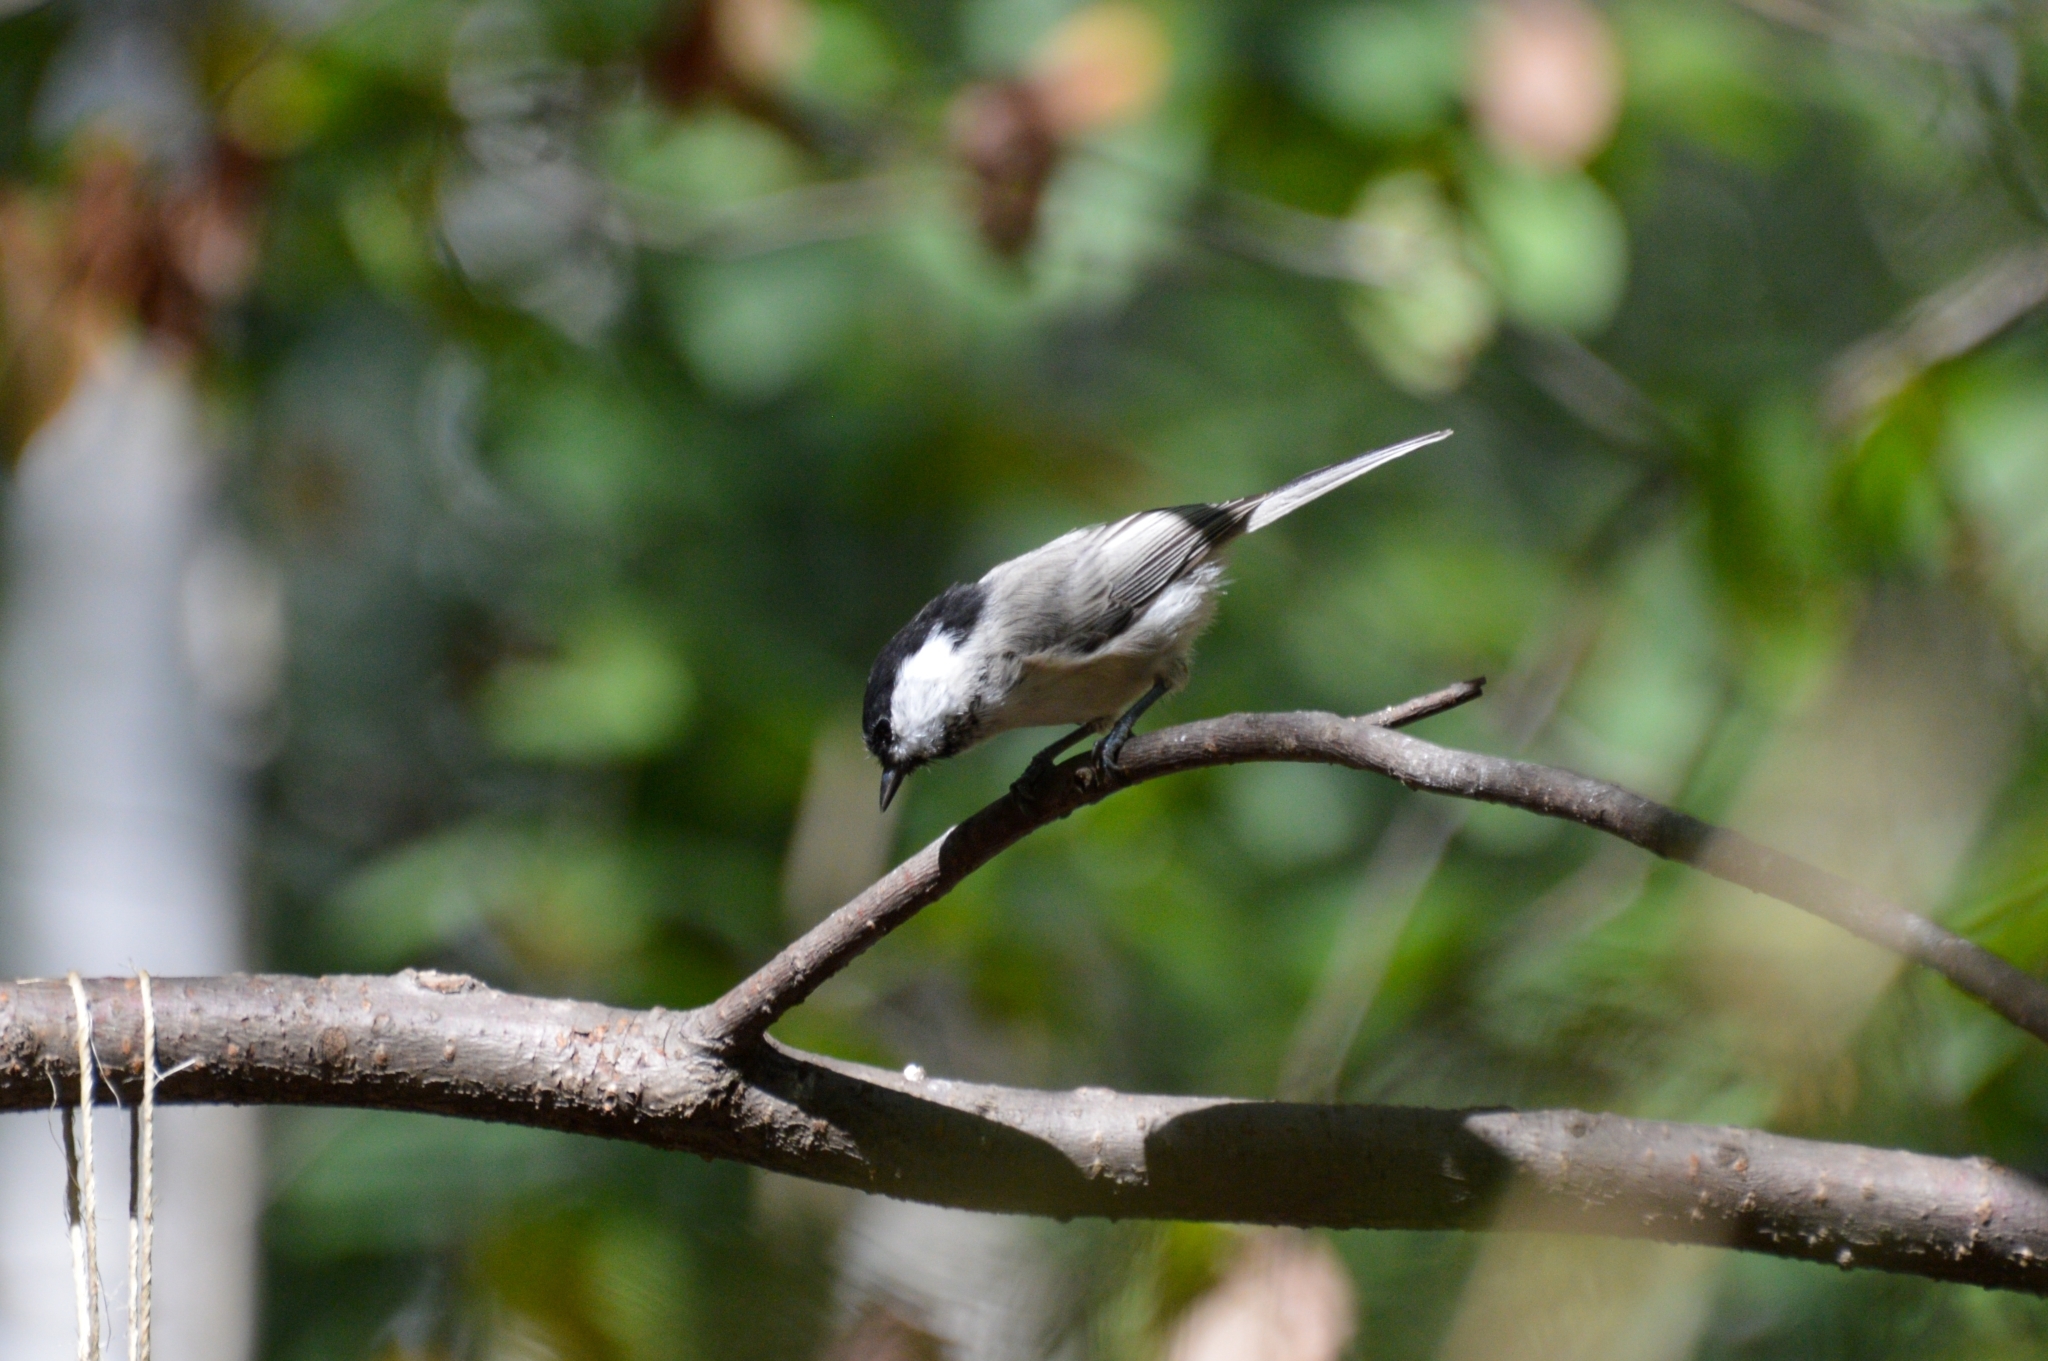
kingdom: Animalia
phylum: Chordata
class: Aves
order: Passeriformes
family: Paridae
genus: Poecile
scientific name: Poecile palustris
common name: Marsh tit
